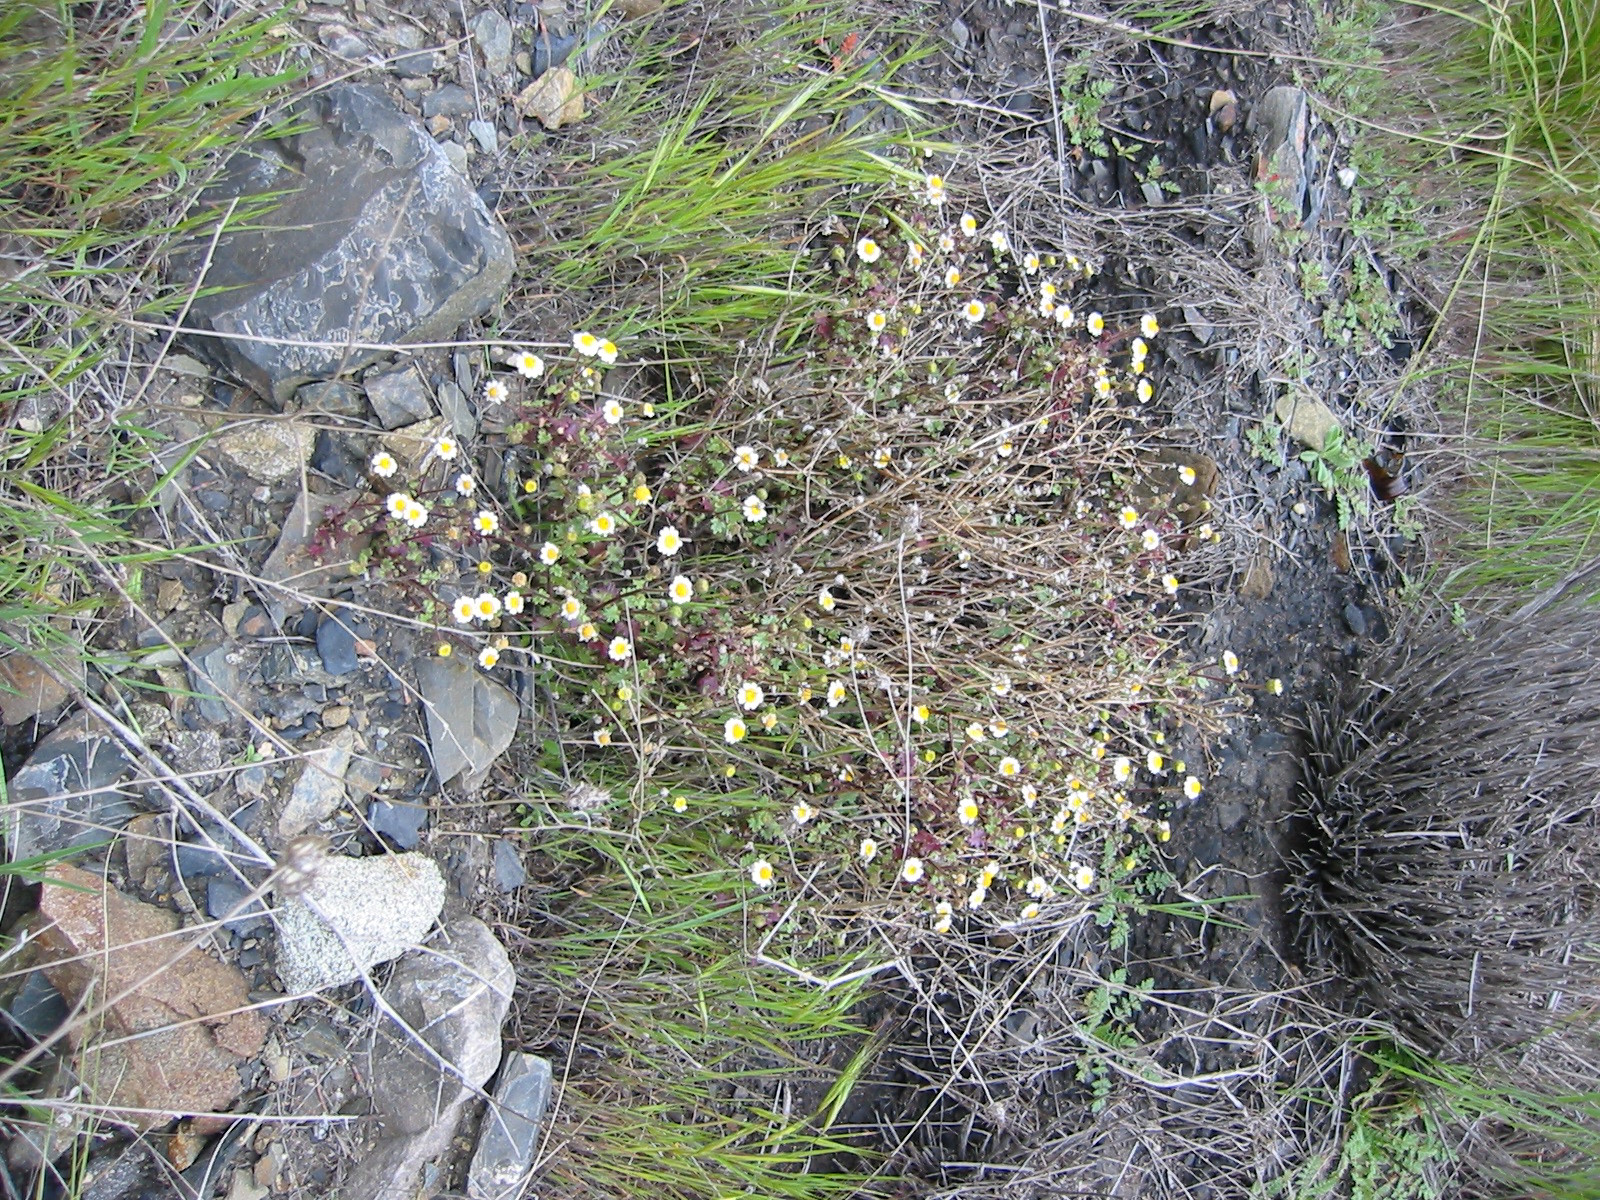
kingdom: Plantae
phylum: Tracheophyta
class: Magnoliopsida
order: Asterales
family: Asteraceae
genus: Laphamia
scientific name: Laphamia emoryi
